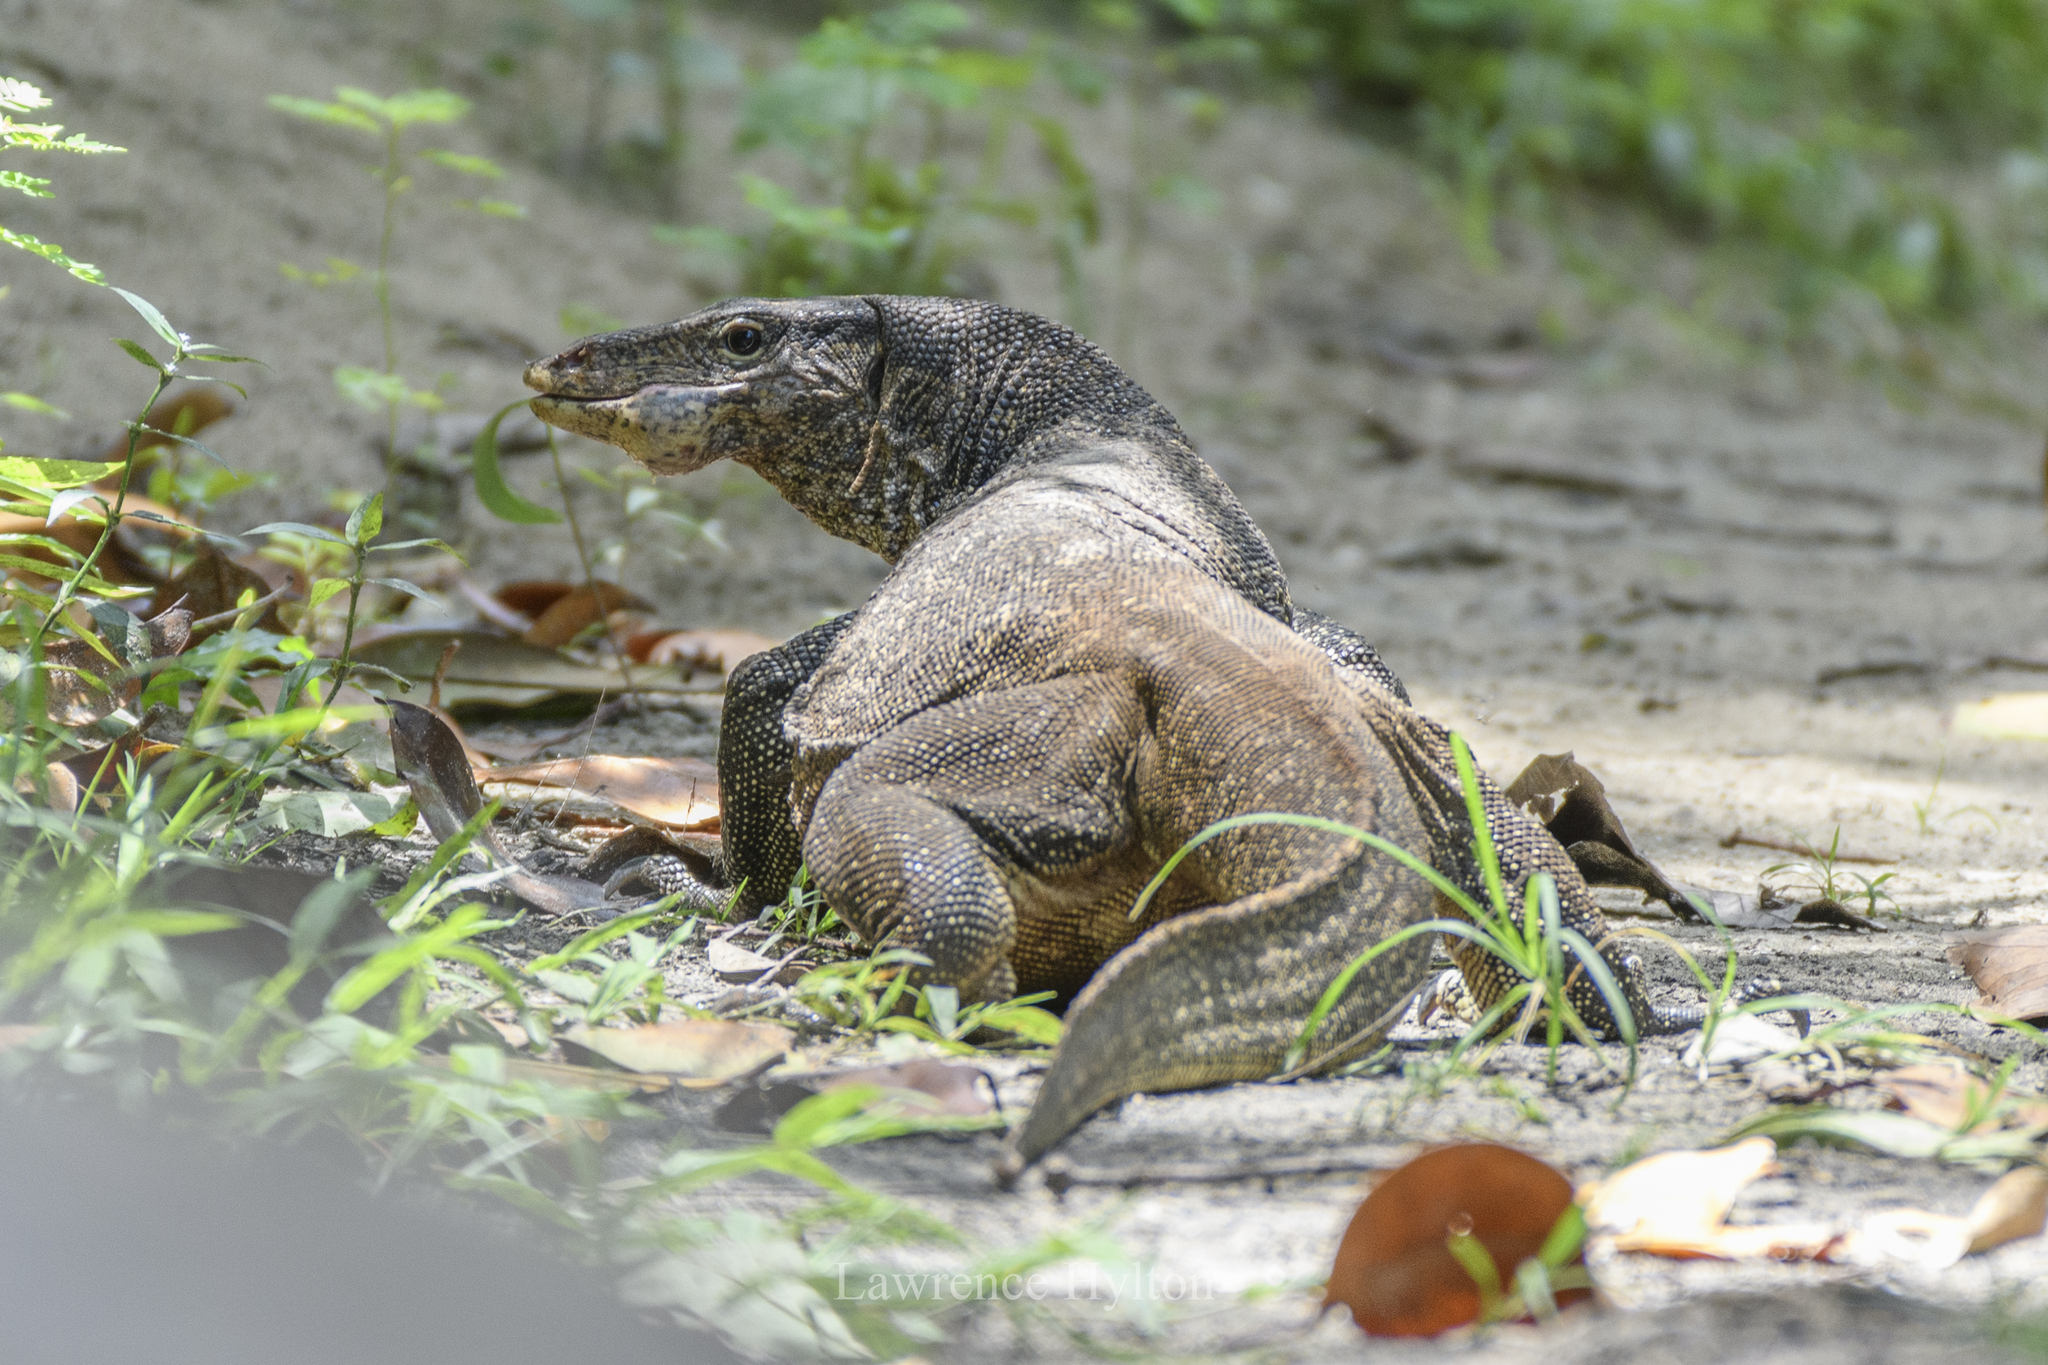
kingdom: Animalia
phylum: Chordata
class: Squamata
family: Varanidae
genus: Varanus
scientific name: Varanus salvator
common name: Common water monitor
